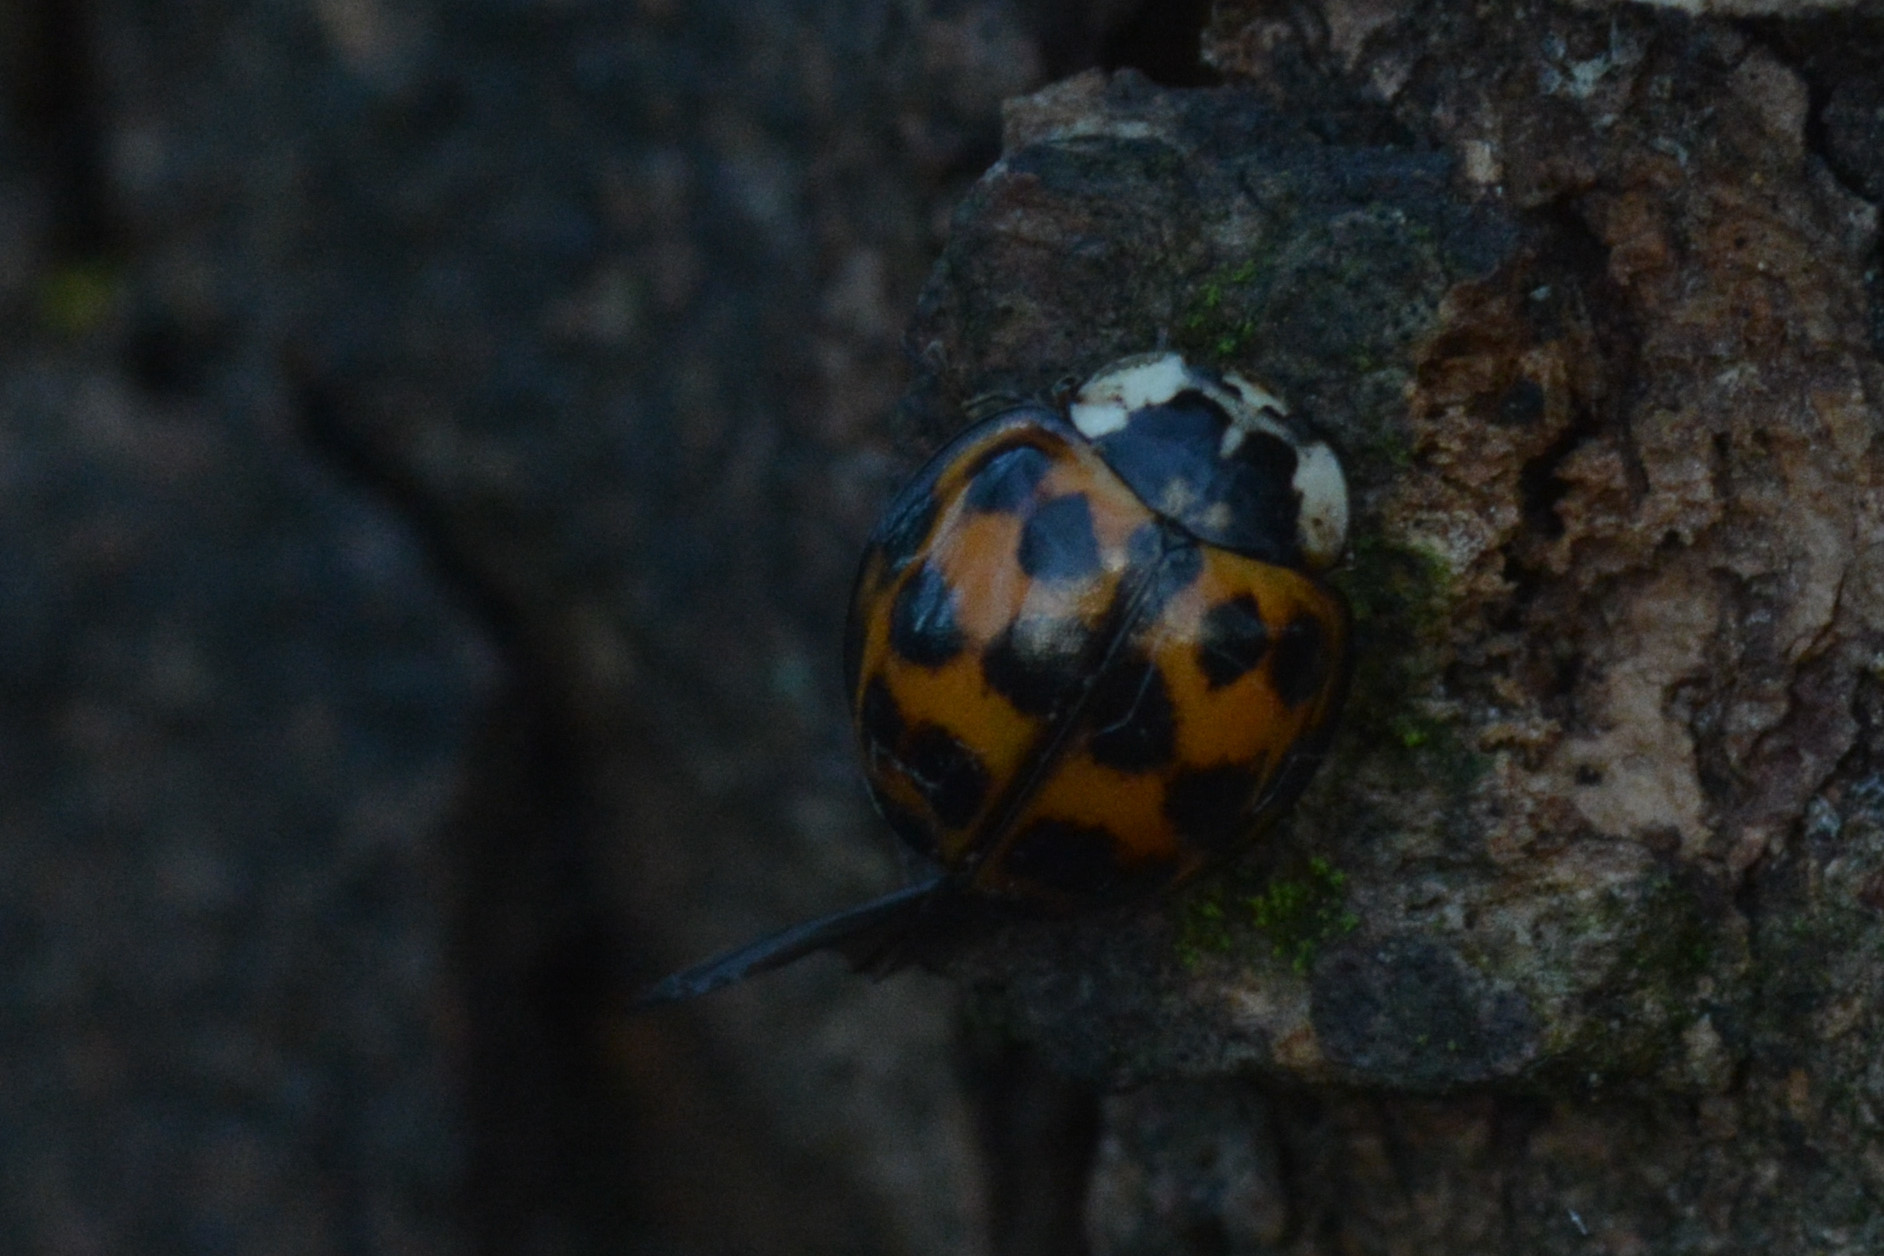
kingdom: Animalia
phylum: Arthropoda
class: Insecta
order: Coleoptera
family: Coccinellidae
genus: Harmonia
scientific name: Harmonia axyridis
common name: Harlequin ladybird
